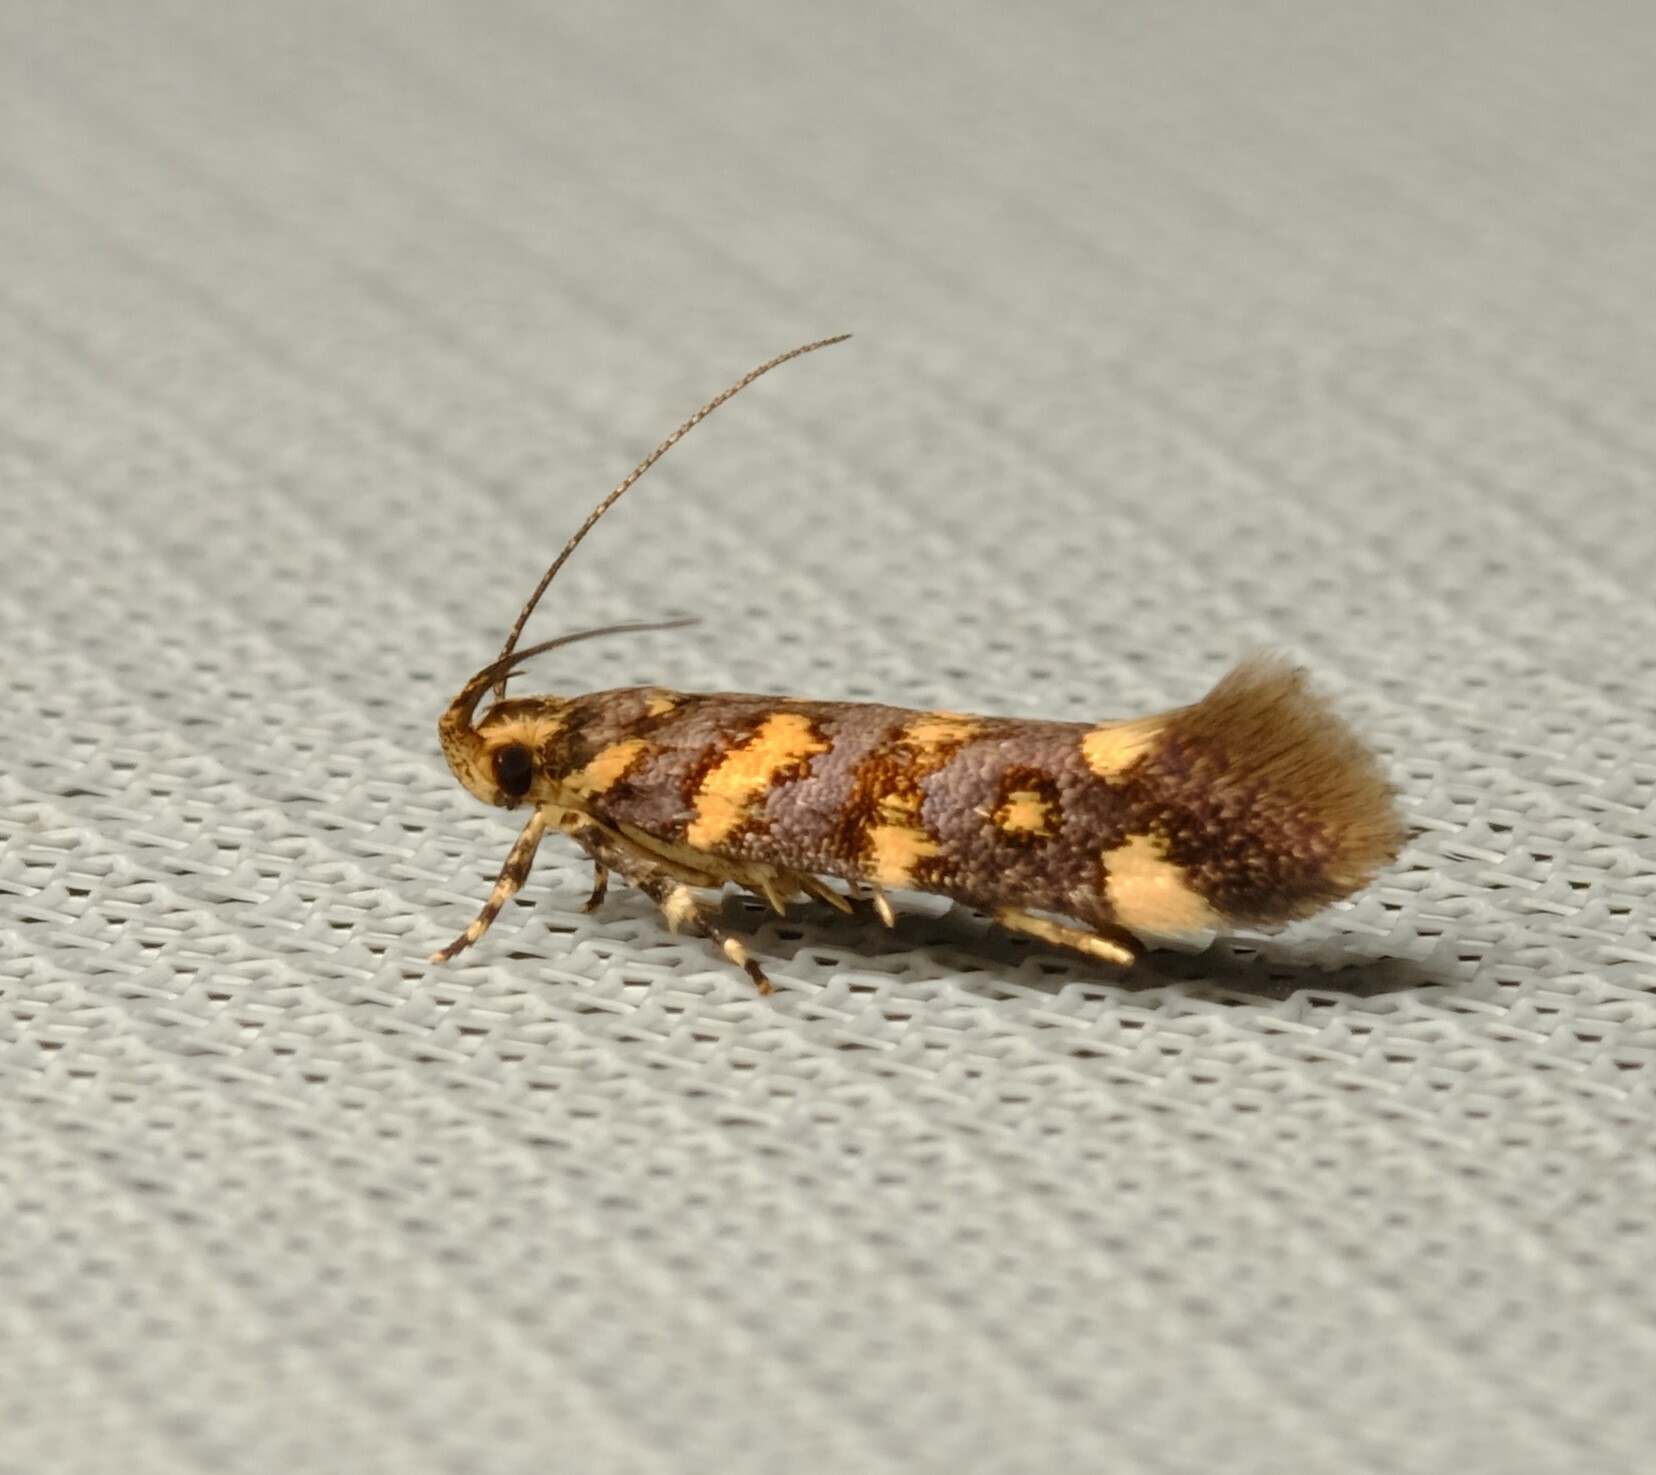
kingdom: Animalia
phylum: Arthropoda
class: Insecta
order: Lepidoptera
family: Cosmopterigidae
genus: Macrobathra
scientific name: Macrobathra myriophthalma
